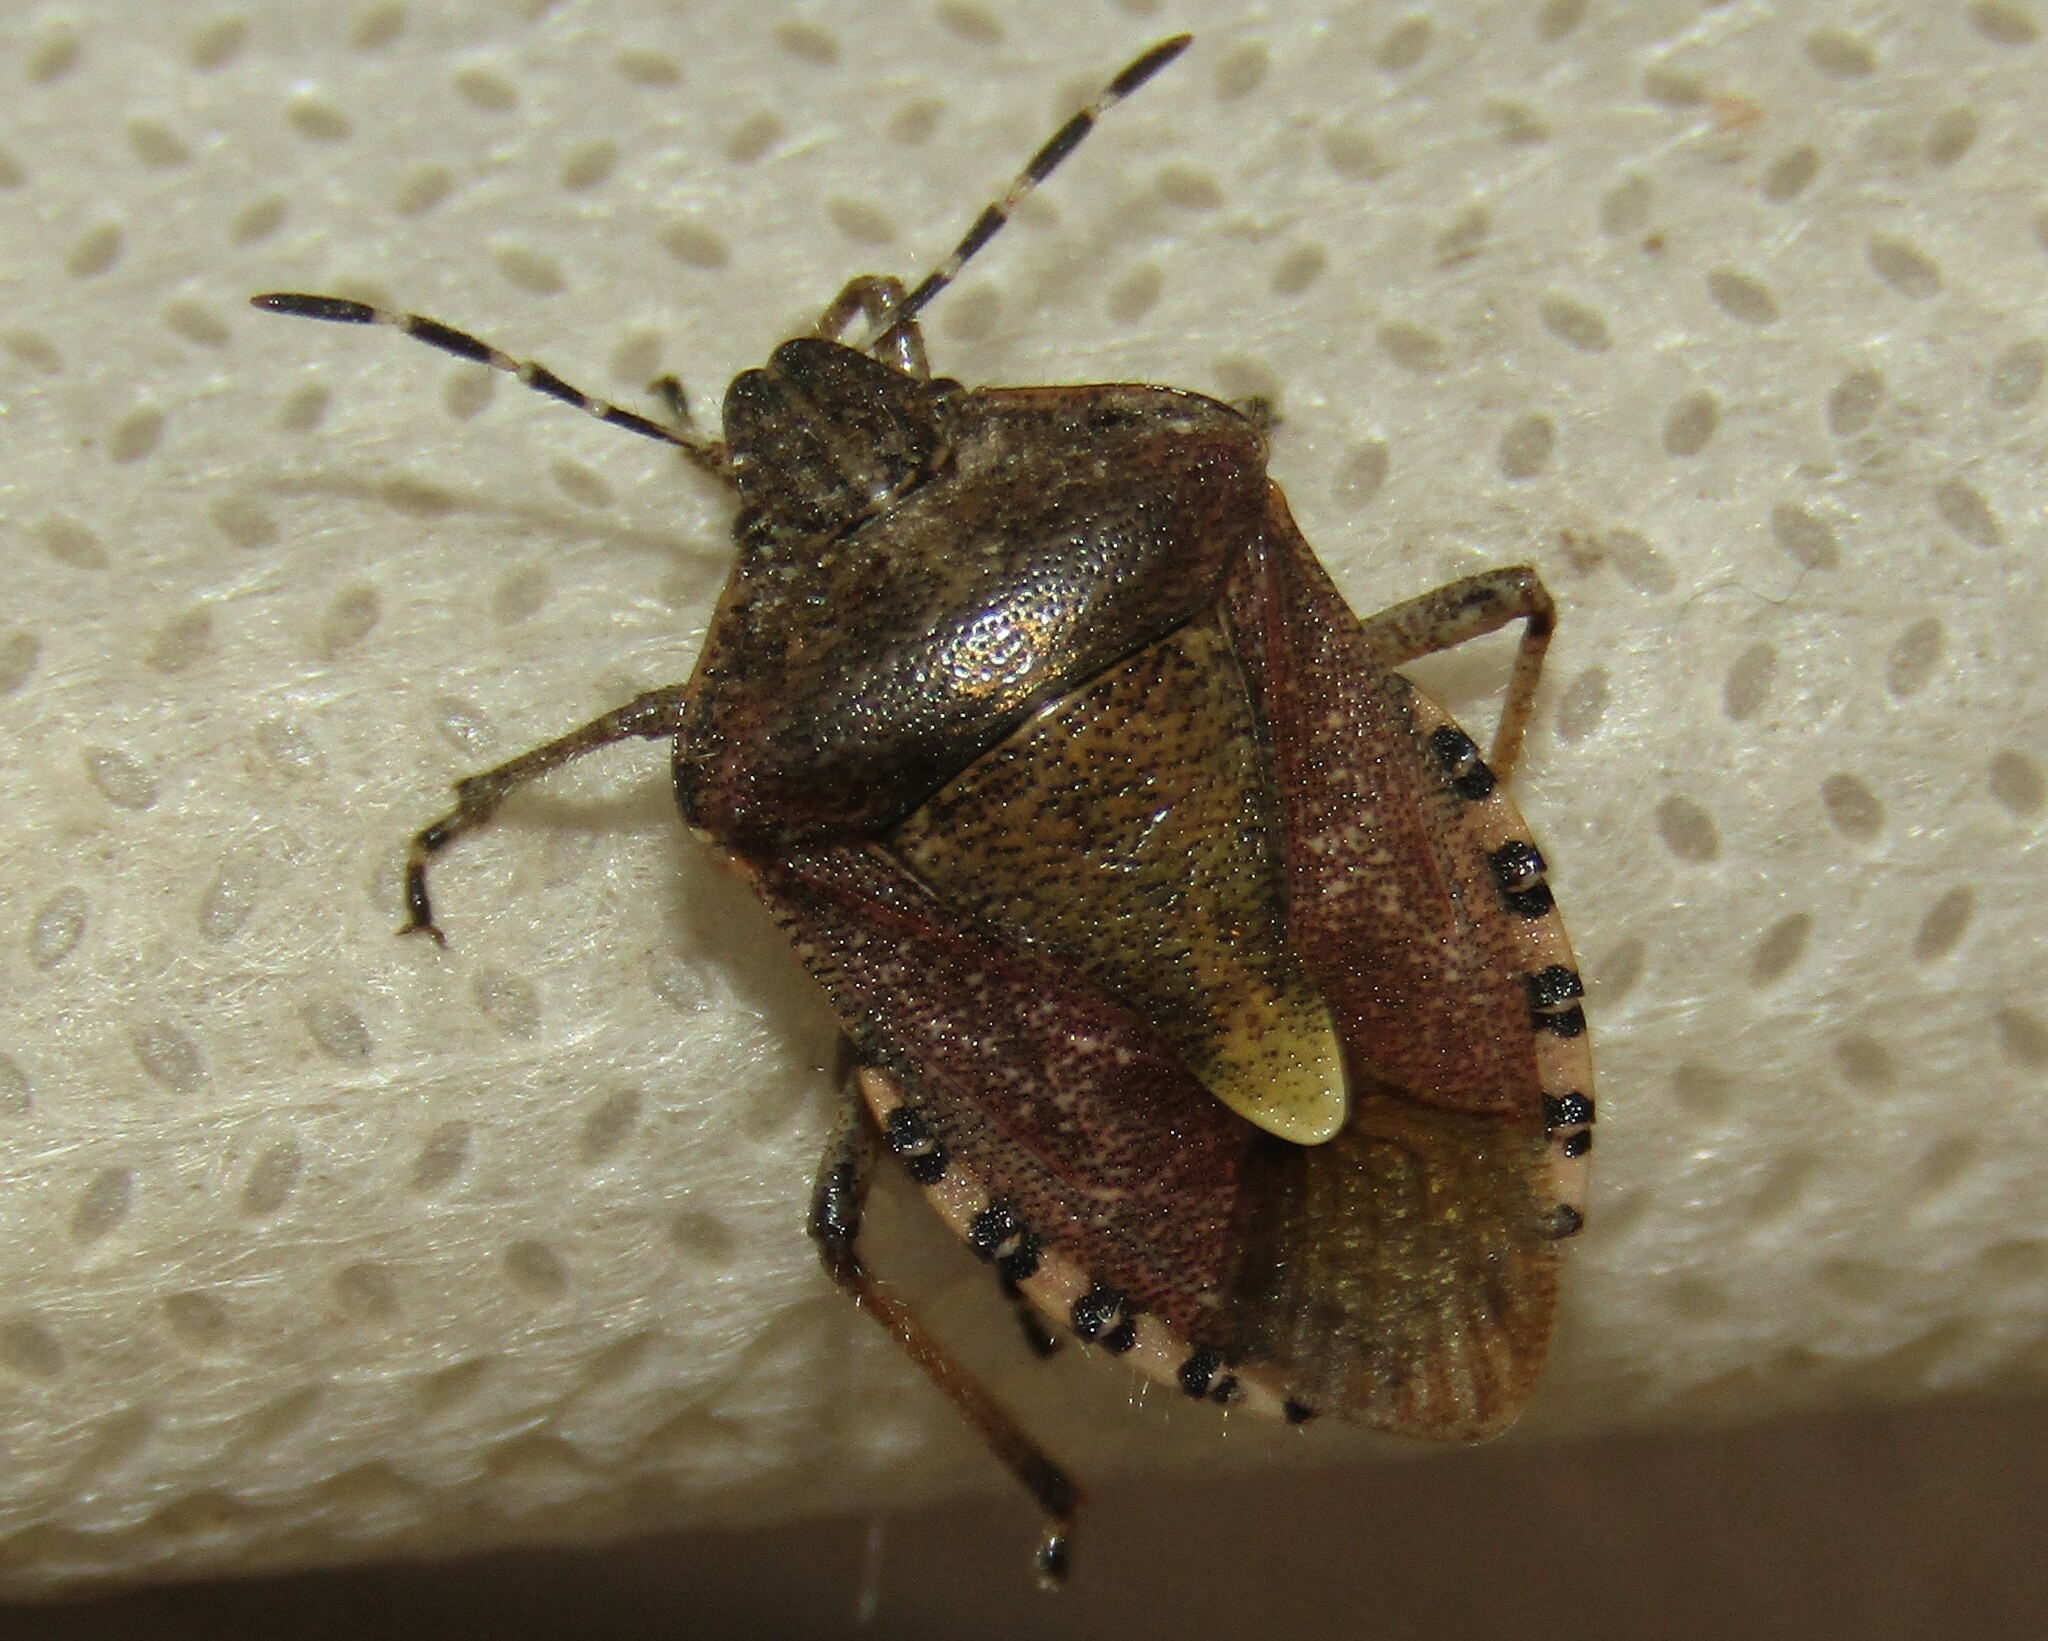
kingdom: Animalia
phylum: Arthropoda
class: Insecta
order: Hemiptera
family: Pentatomidae
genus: Dolycoris
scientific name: Dolycoris baccarum
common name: Sloe bug
